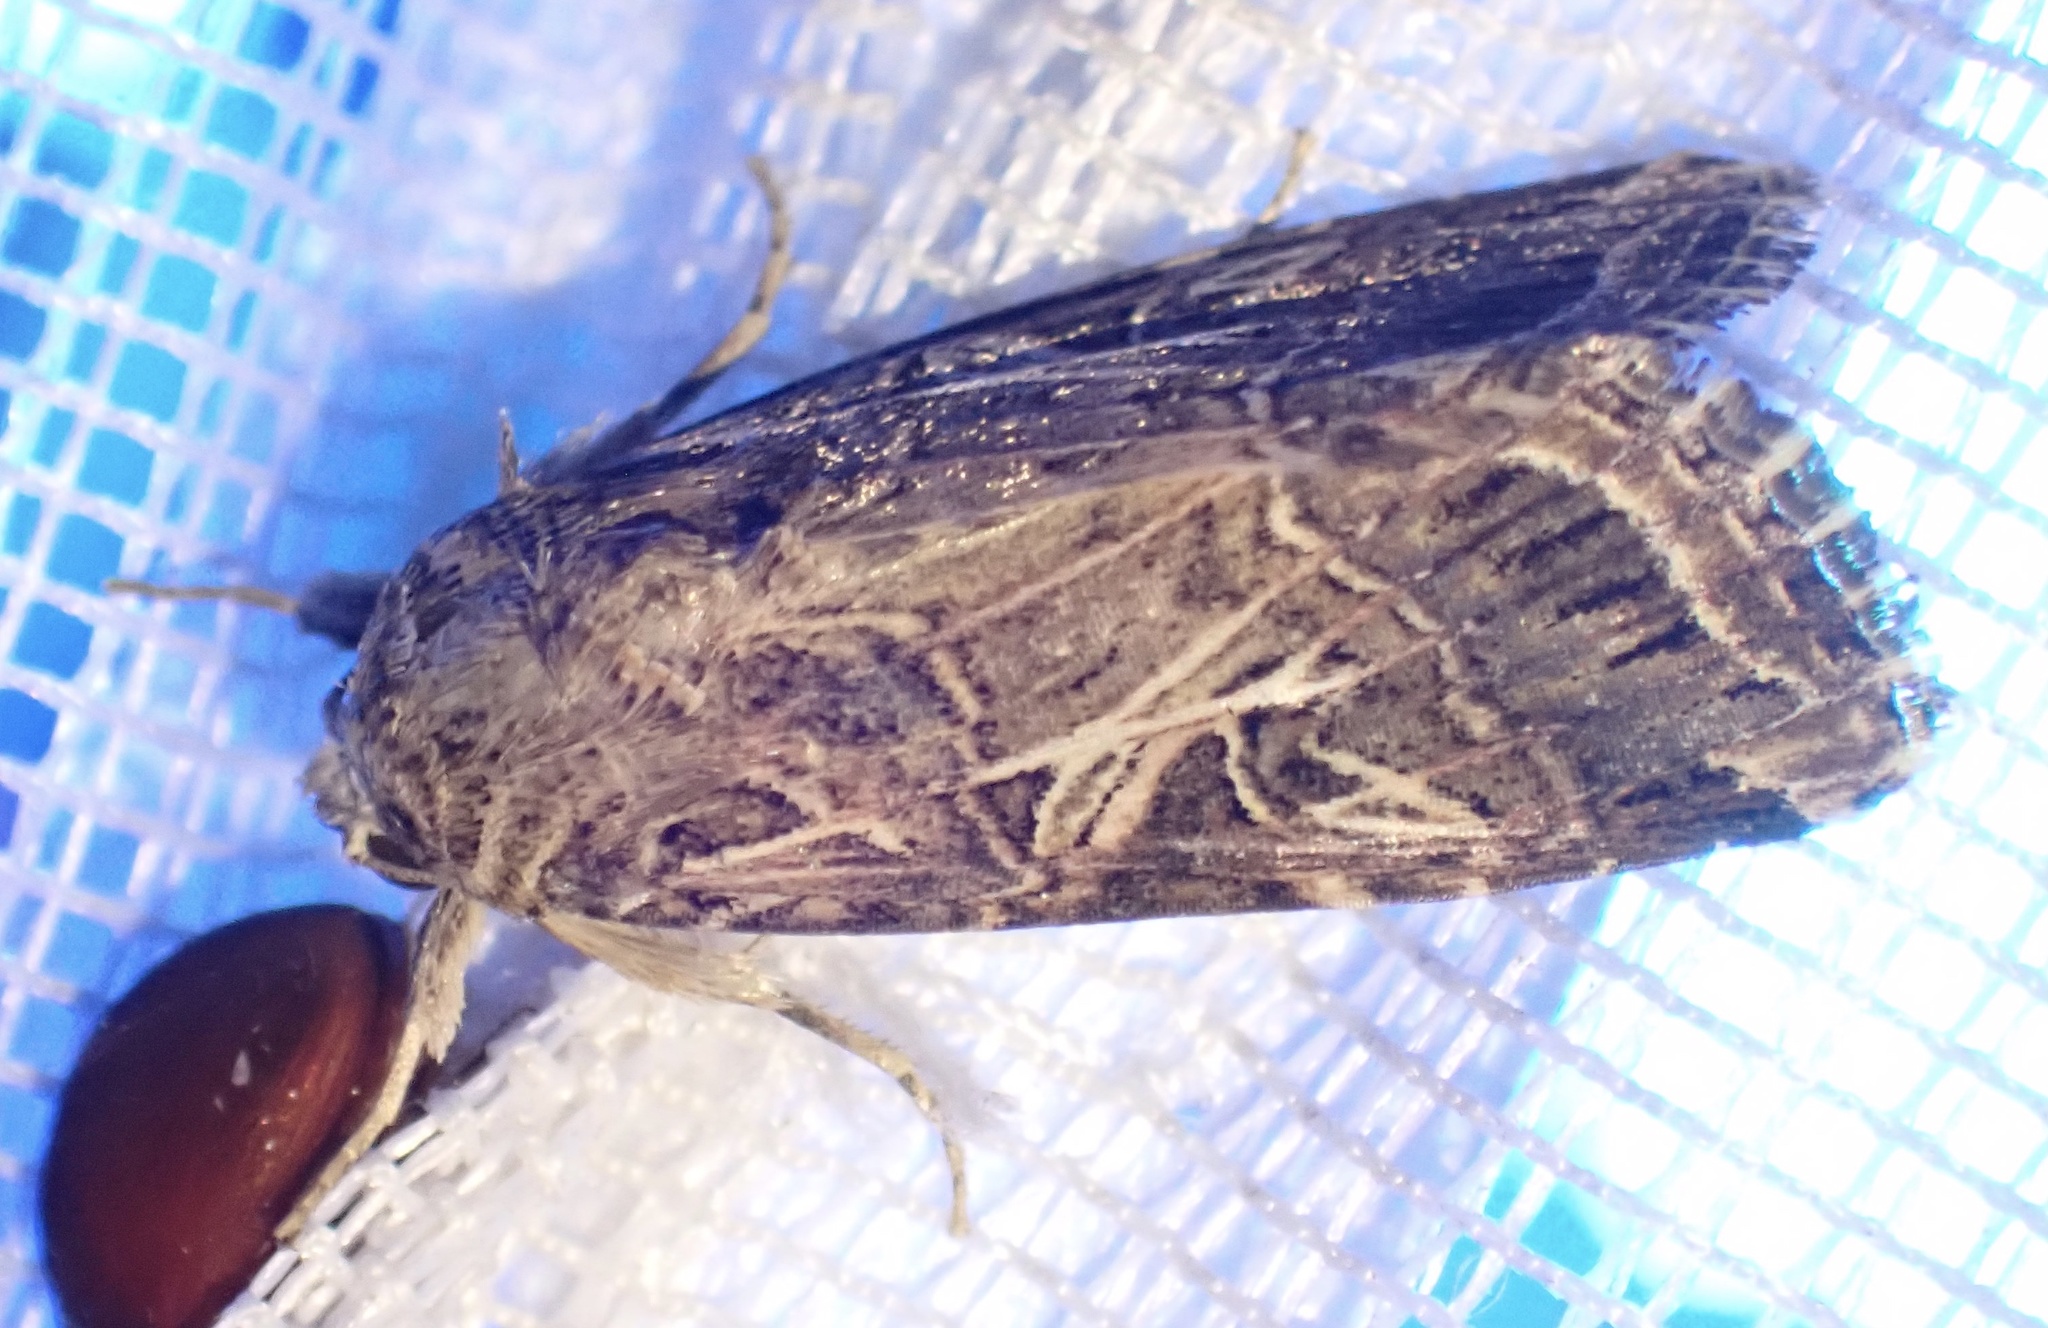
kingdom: Animalia
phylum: Arthropoda
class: Insecta
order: Lepidoptera
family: Noctuidae
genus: Spodoptera
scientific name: Spodoptera littoralis
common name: Egyptian cotton leafworm
